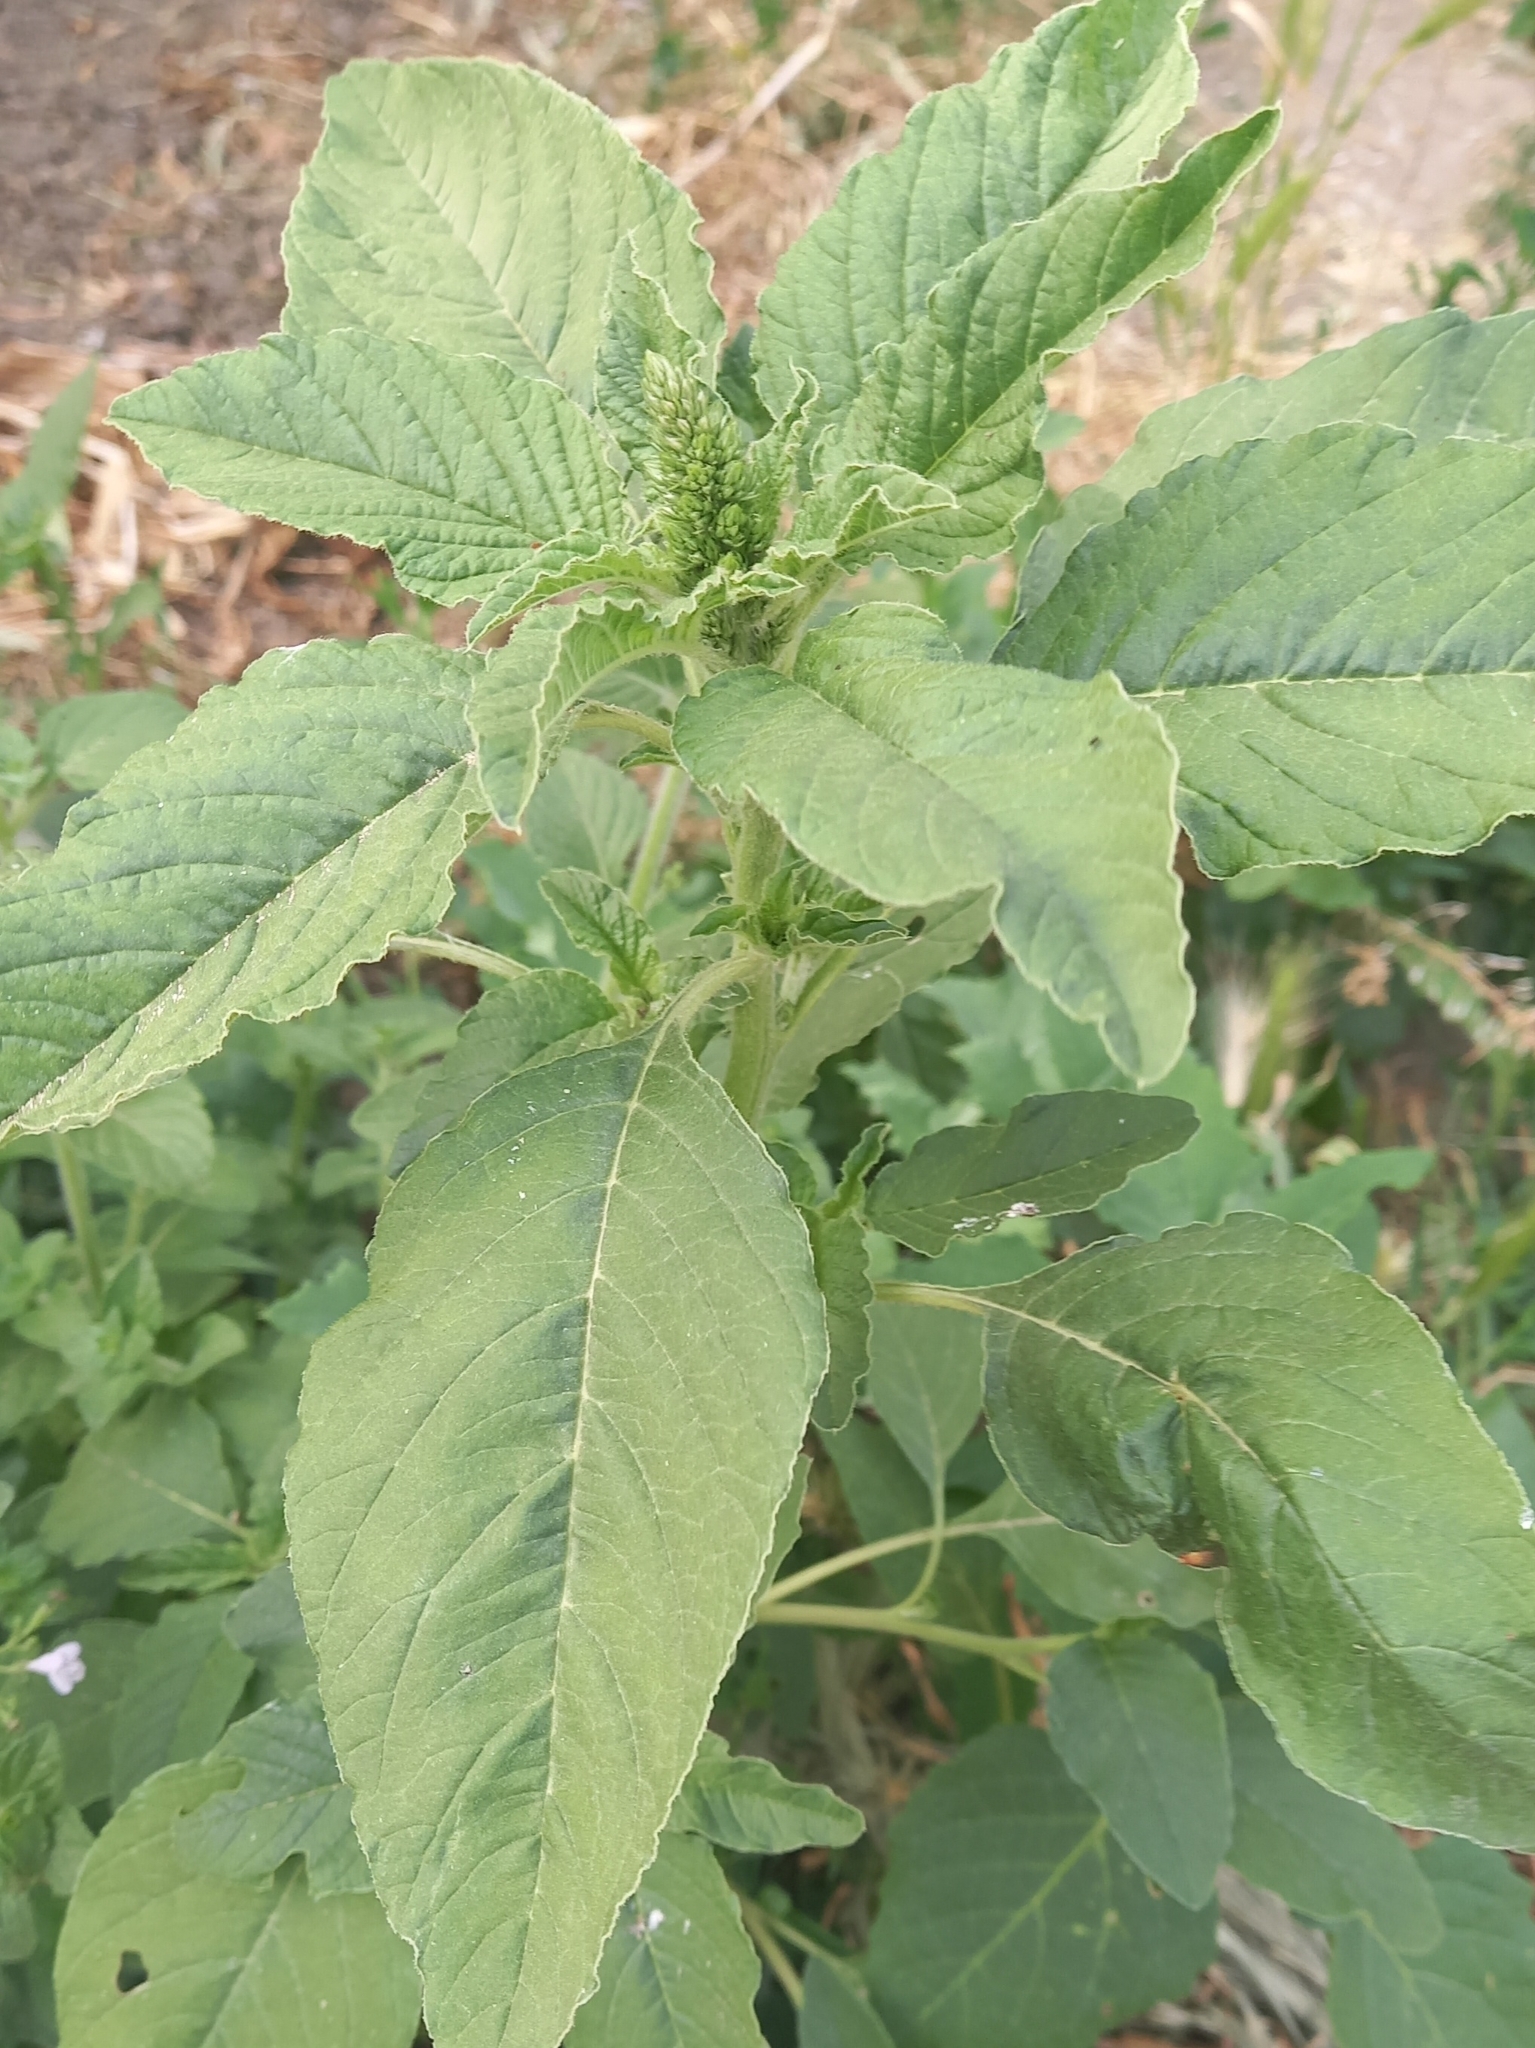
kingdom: Plantae
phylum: Tracheophyta
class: Magnoliopsida
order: Caryophyllales
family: Amaranthaceae
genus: Amaranthus
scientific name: Amaranthus retroflexus
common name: Redroot amaranth
